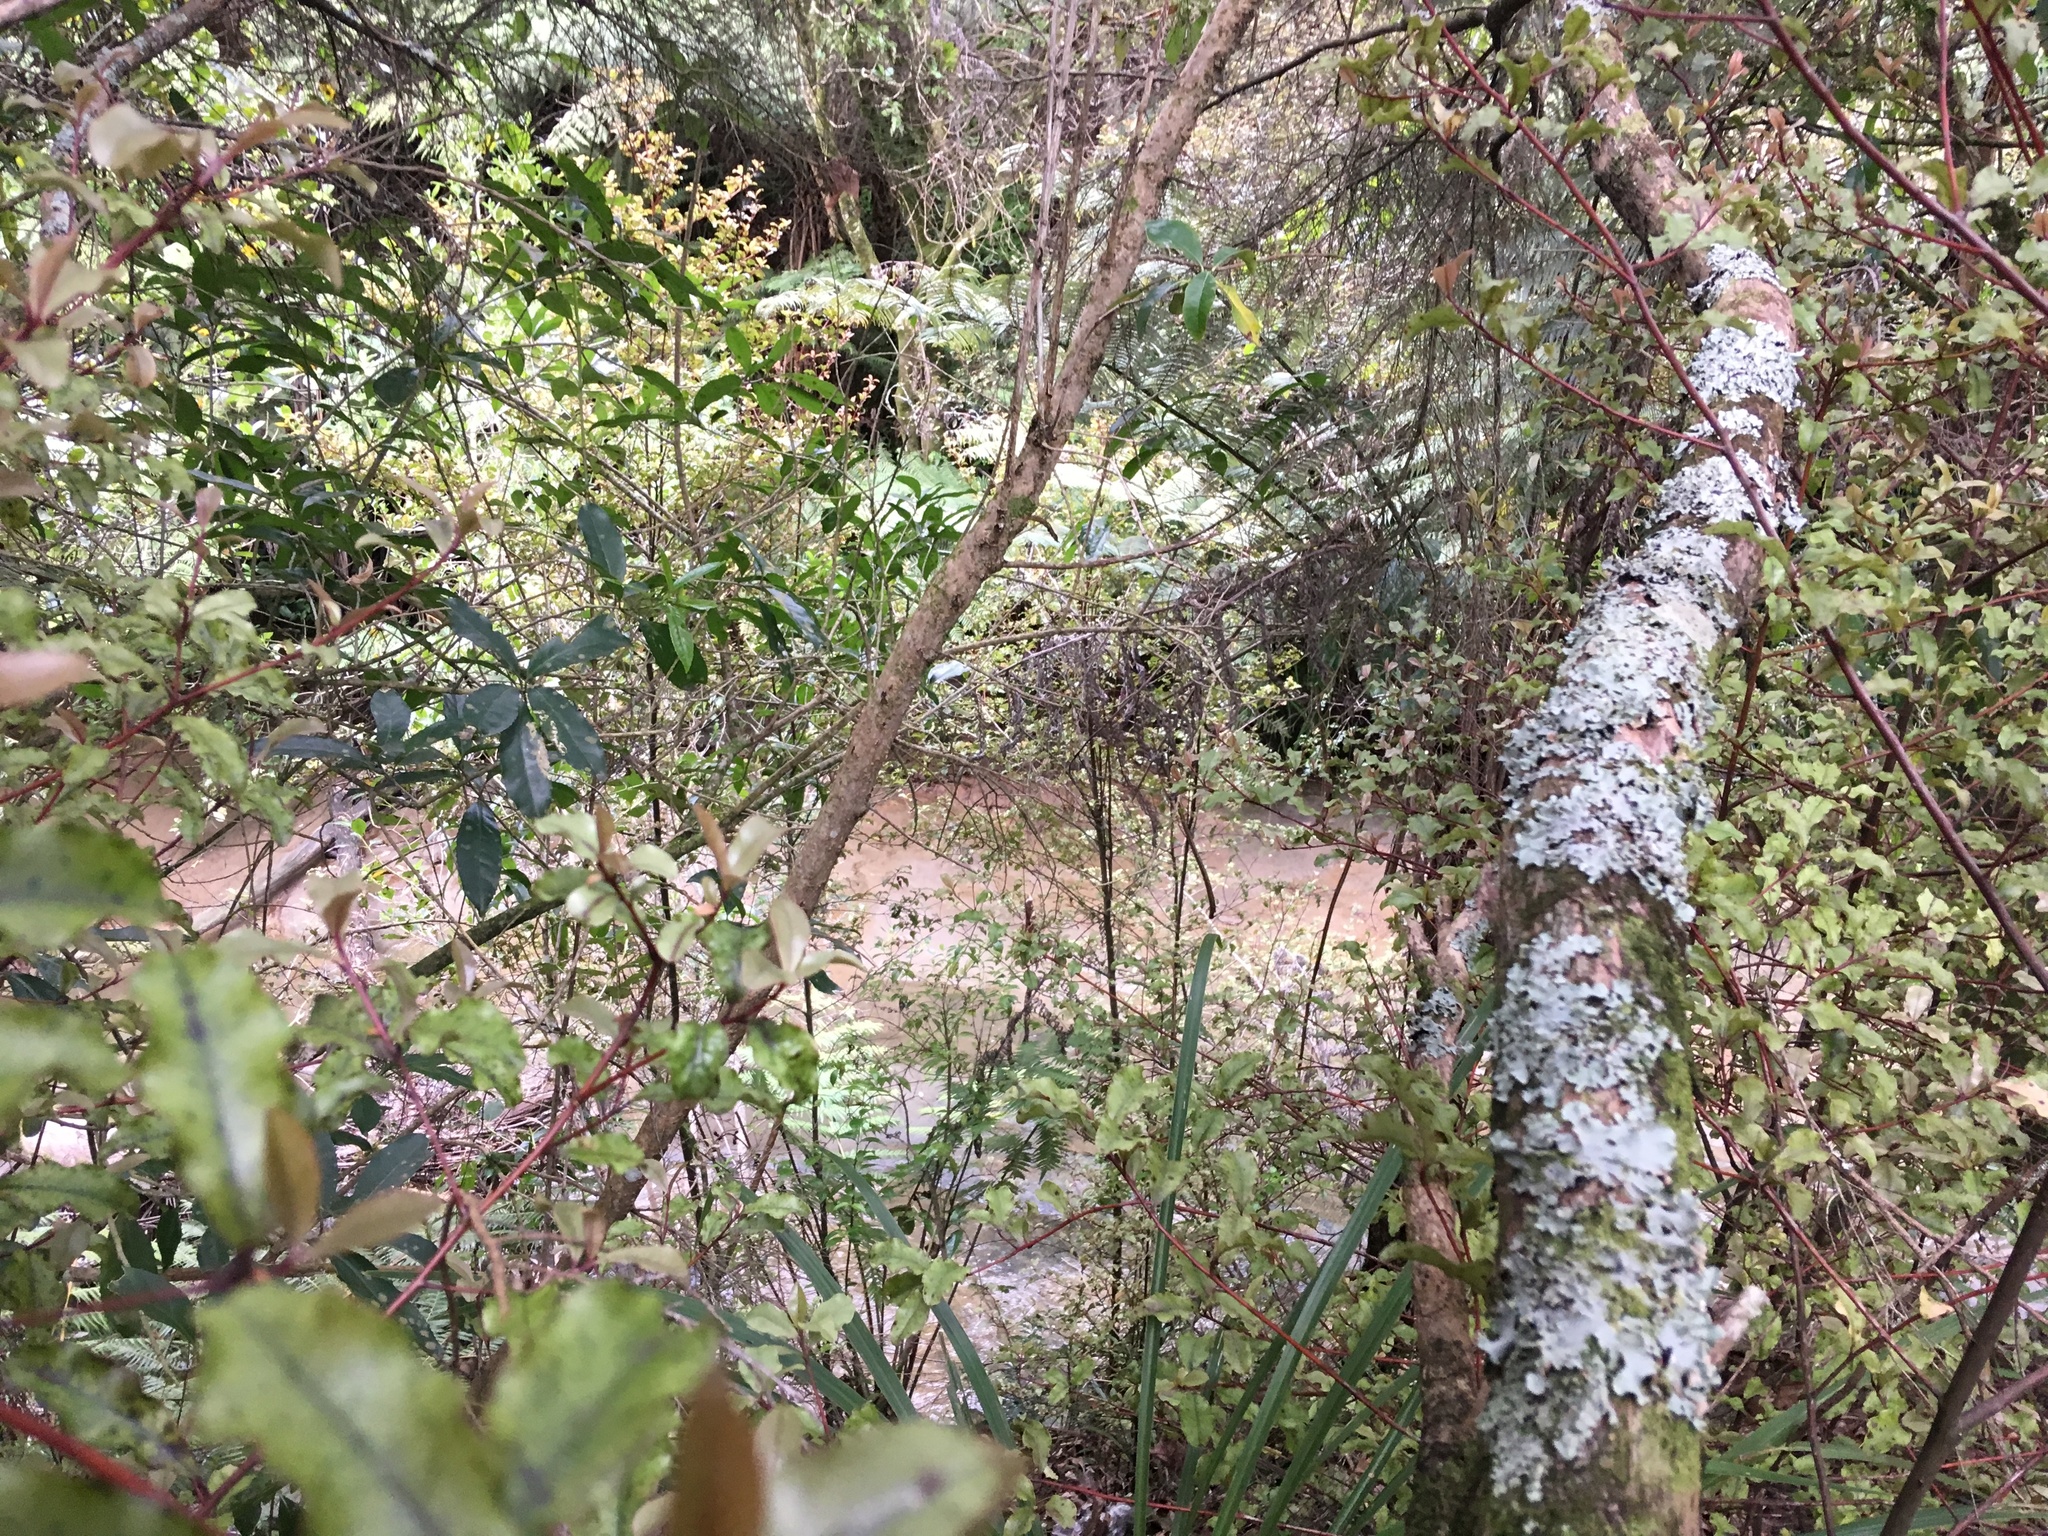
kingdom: Plantae
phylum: Tracheophyta
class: Magnoliopsida
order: Ericales
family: Primulaceae
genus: Myrsine
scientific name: Myrsine australis
